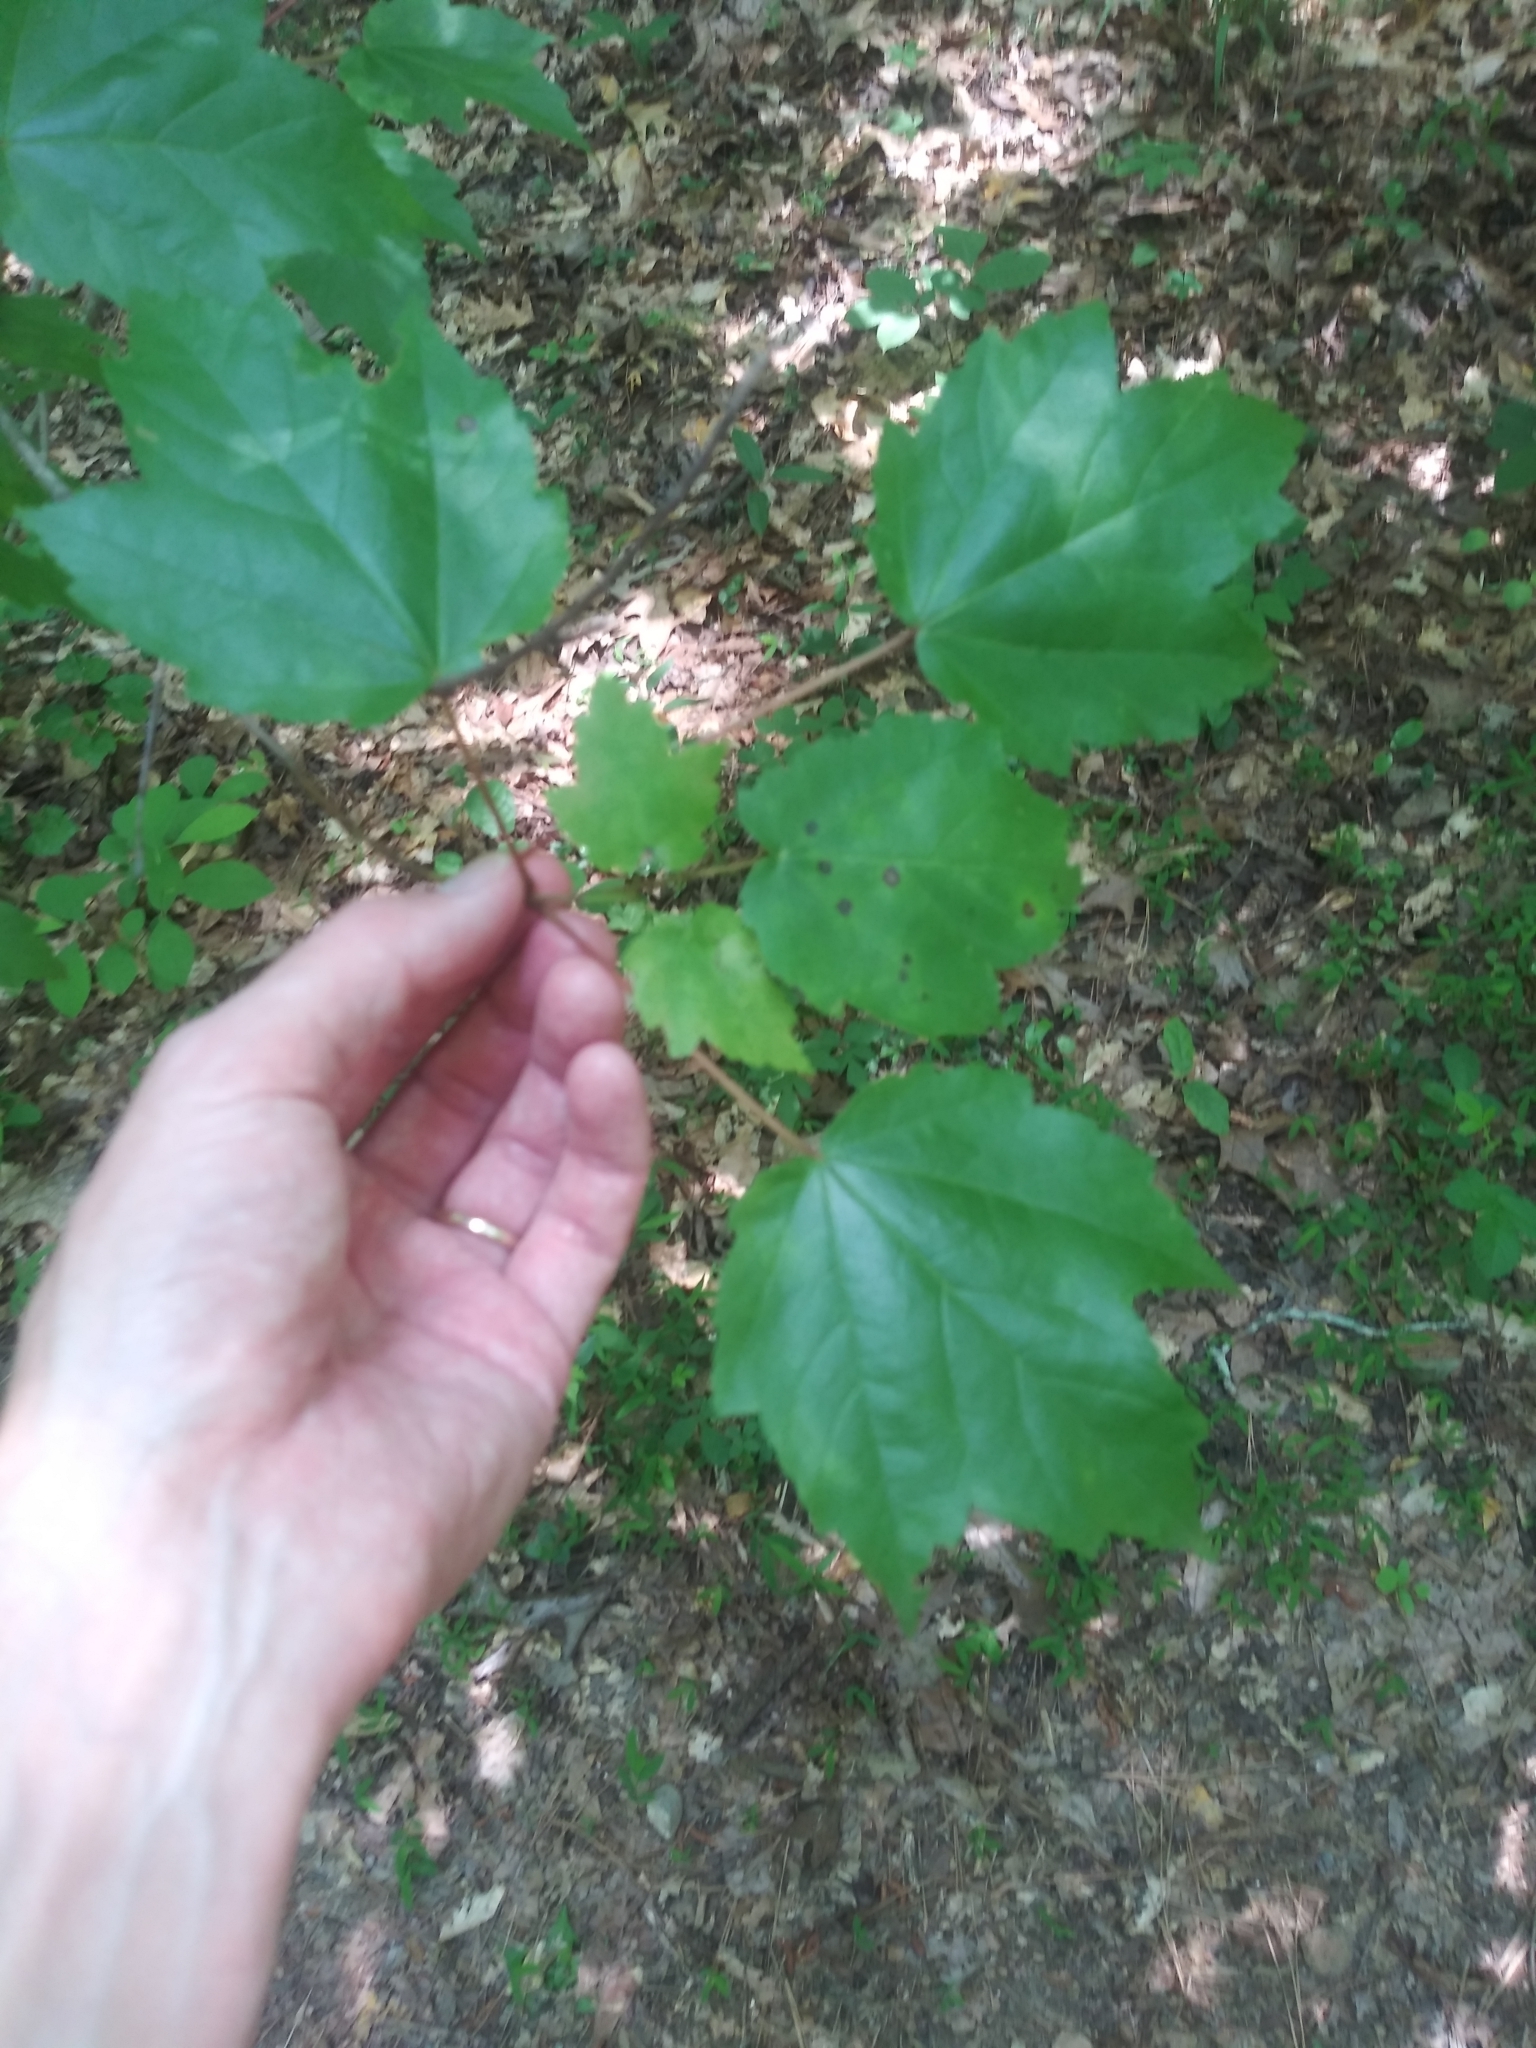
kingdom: Plantae
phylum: Tracheophyta
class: Magnoliopsida
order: Sapindales
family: Sapindaceae
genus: Acer
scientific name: Acer rubrum
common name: Red maple
